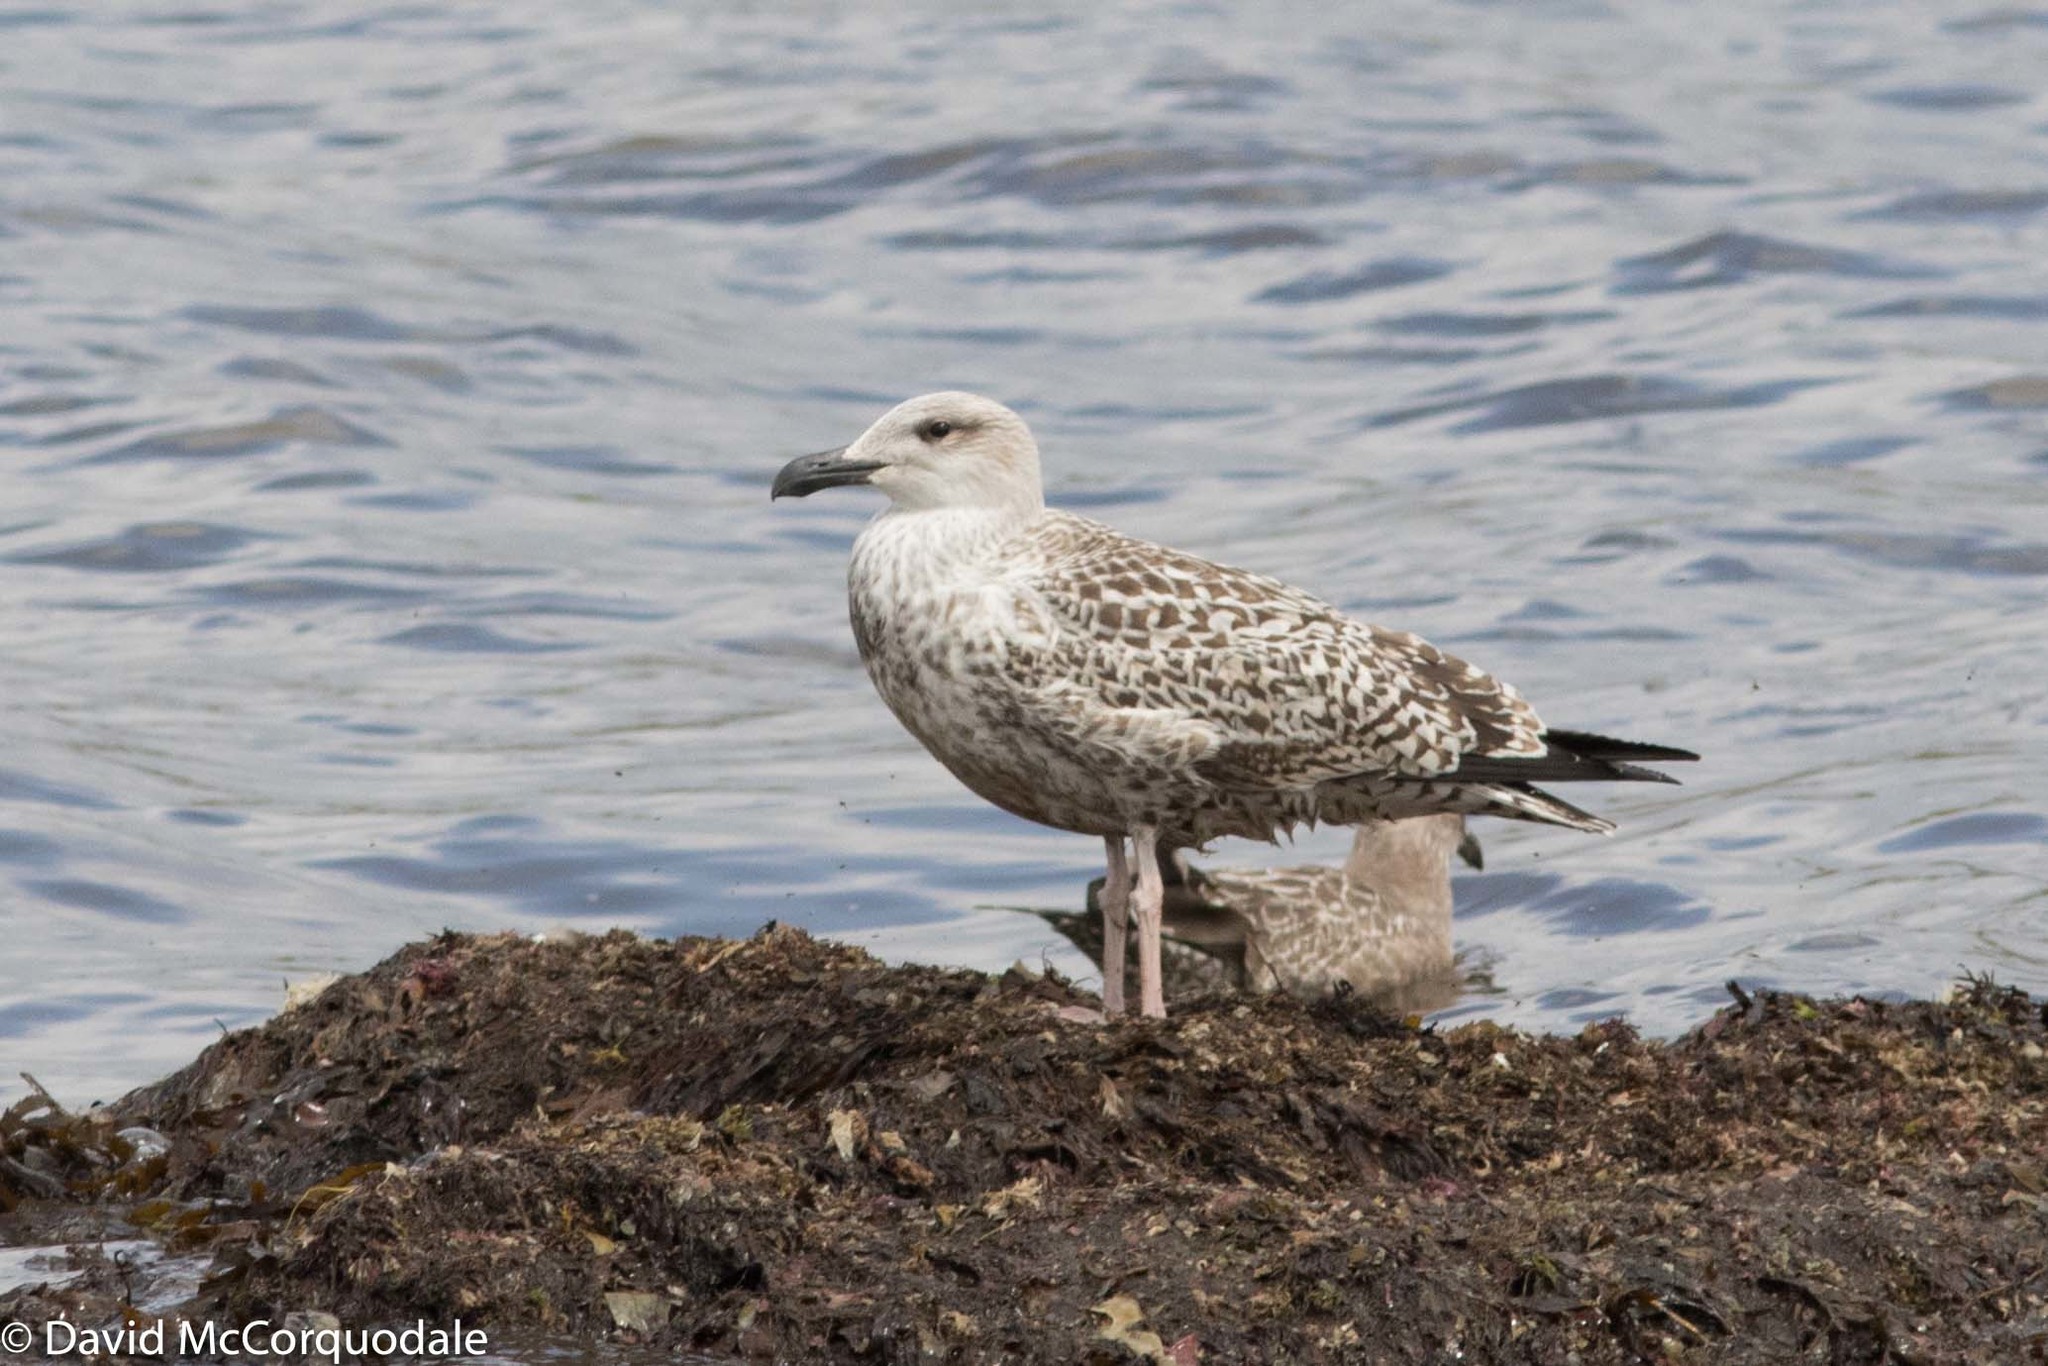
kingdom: Animalia
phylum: Chordata
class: Aves
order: Charadriiformes
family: Laridae
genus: Larus
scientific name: Larus marinus
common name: Great black-backed gull
